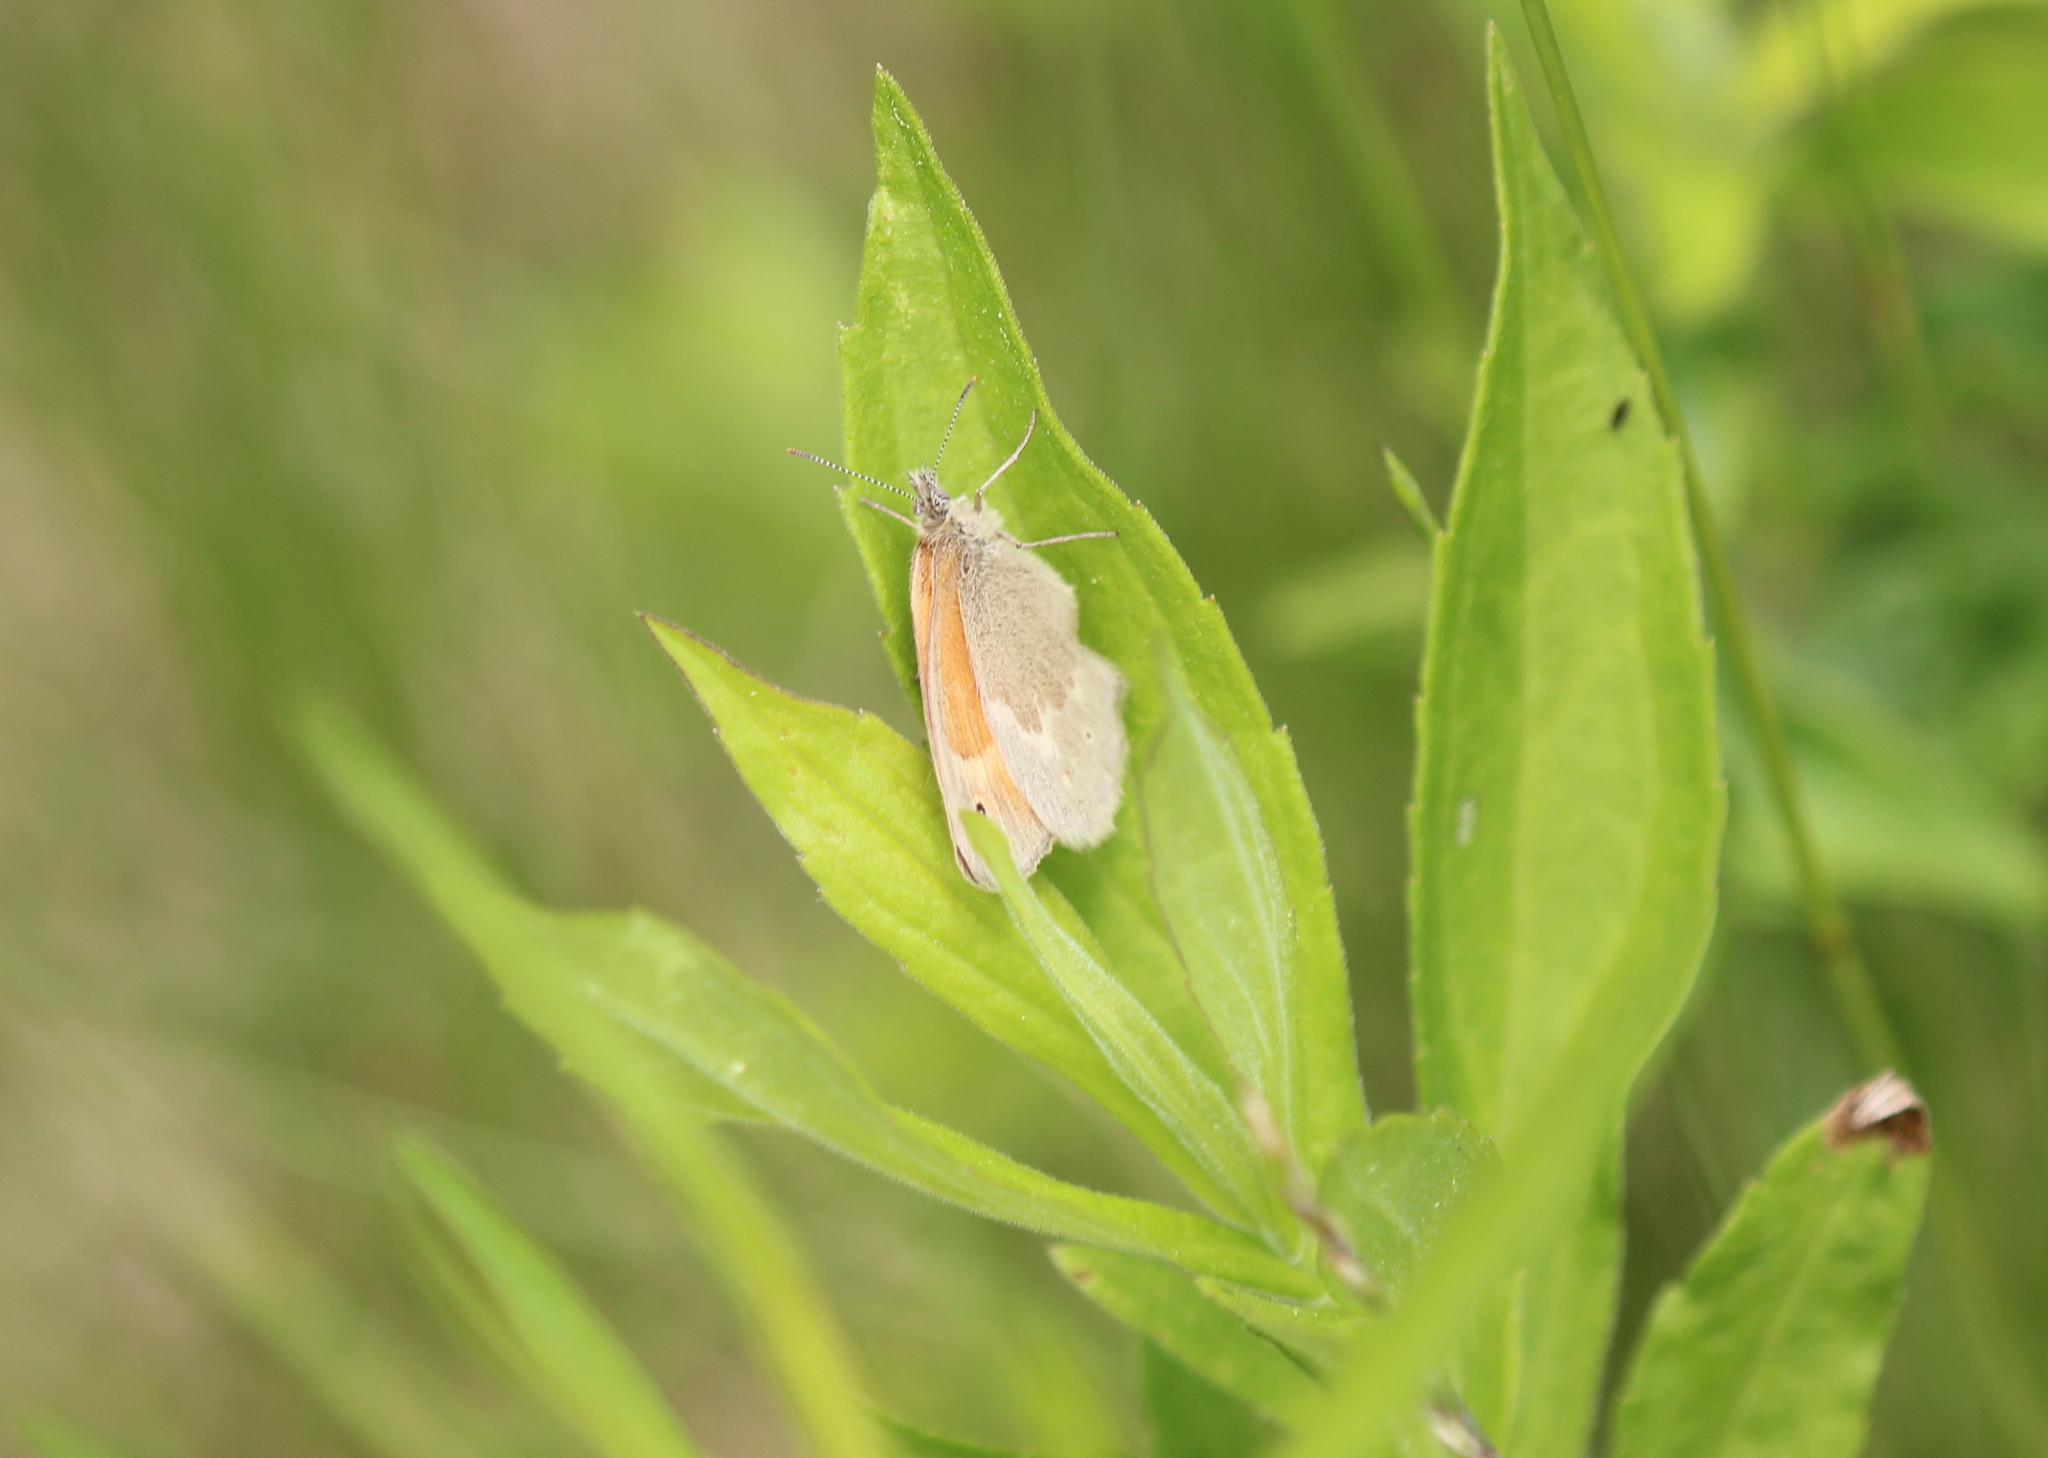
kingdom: Animalia
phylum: Arthropoda
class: Insecta
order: Lepidoptera
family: Nymphalidae
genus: Coenonympha
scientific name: Coenonympha california
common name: Common ringlet
